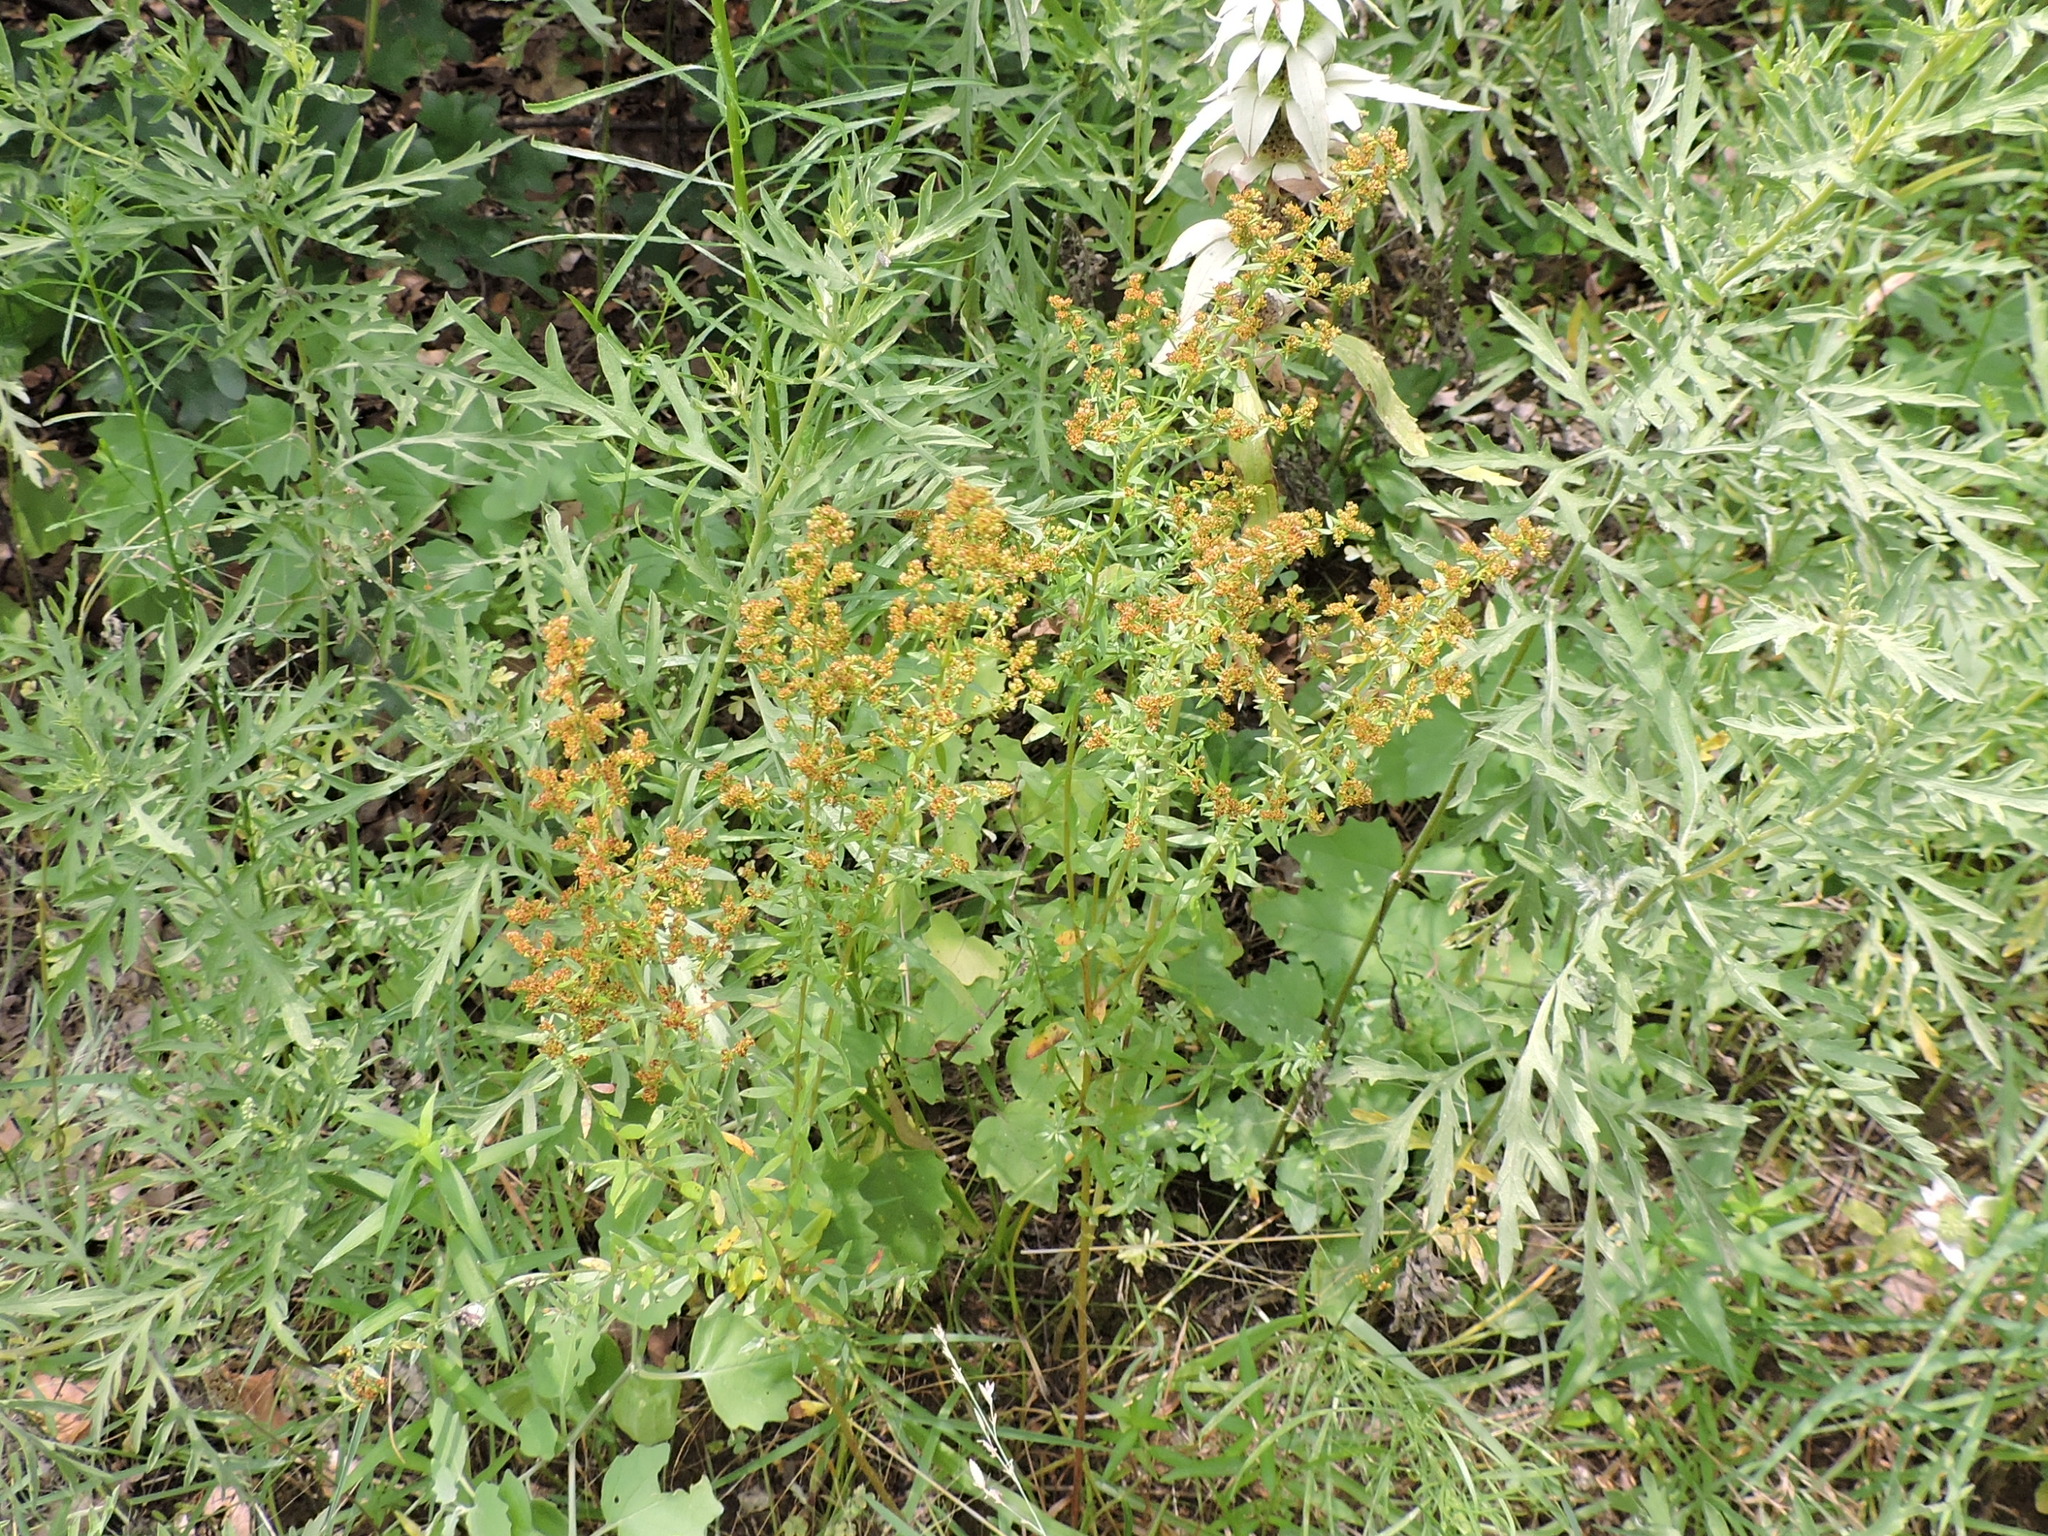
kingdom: Plantae
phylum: Tracheophyta
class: Magnoliopsida
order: Malvales
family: Cistaceae
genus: Lechea
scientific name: Lechea mucronata
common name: Hairy pinweed
